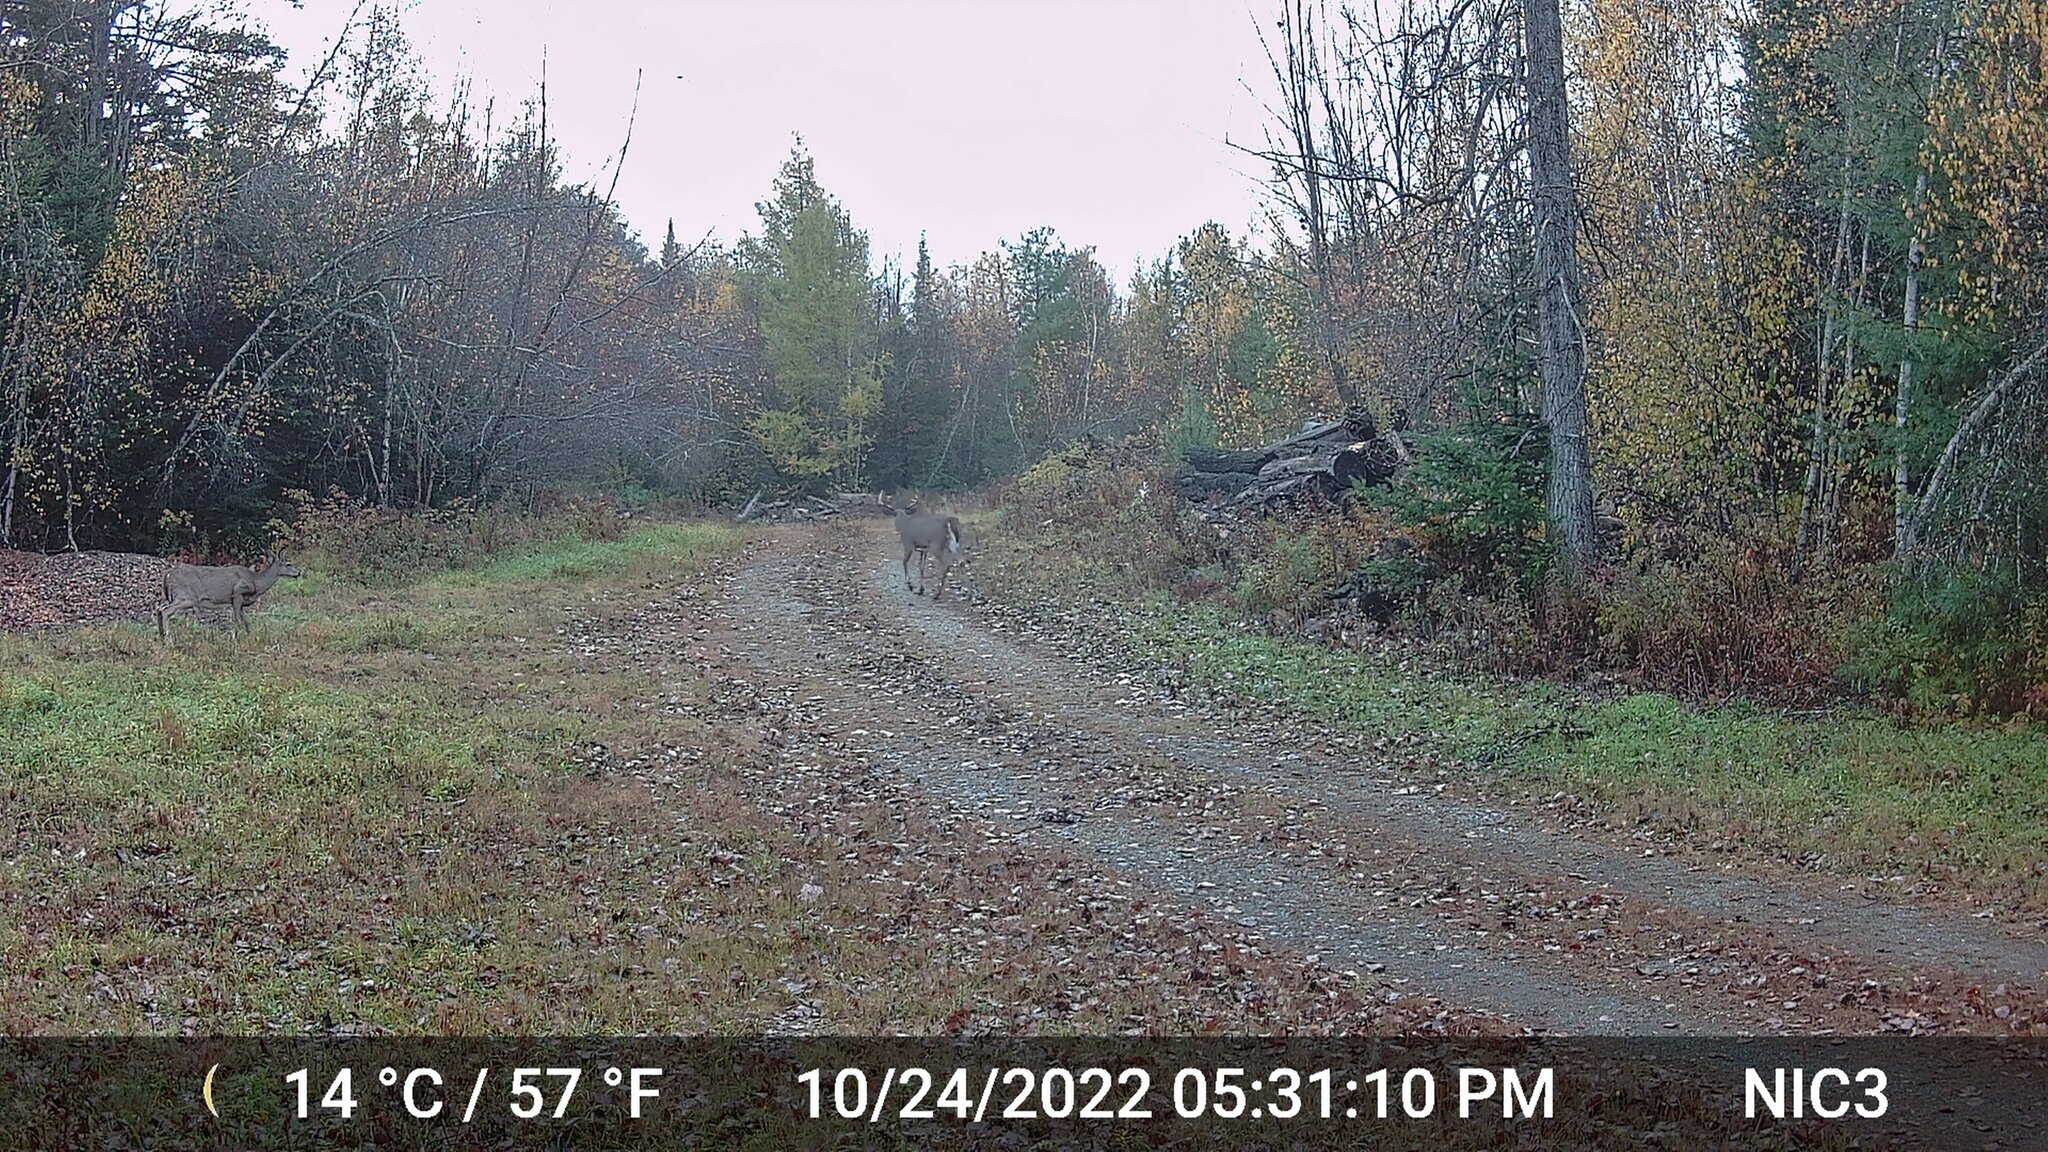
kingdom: Animalia
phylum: Chordata
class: Mammalia
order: Artiodactyla
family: Cervidae
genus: Odocoileus
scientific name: Odocoileus virginianus
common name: White-tailed deer
